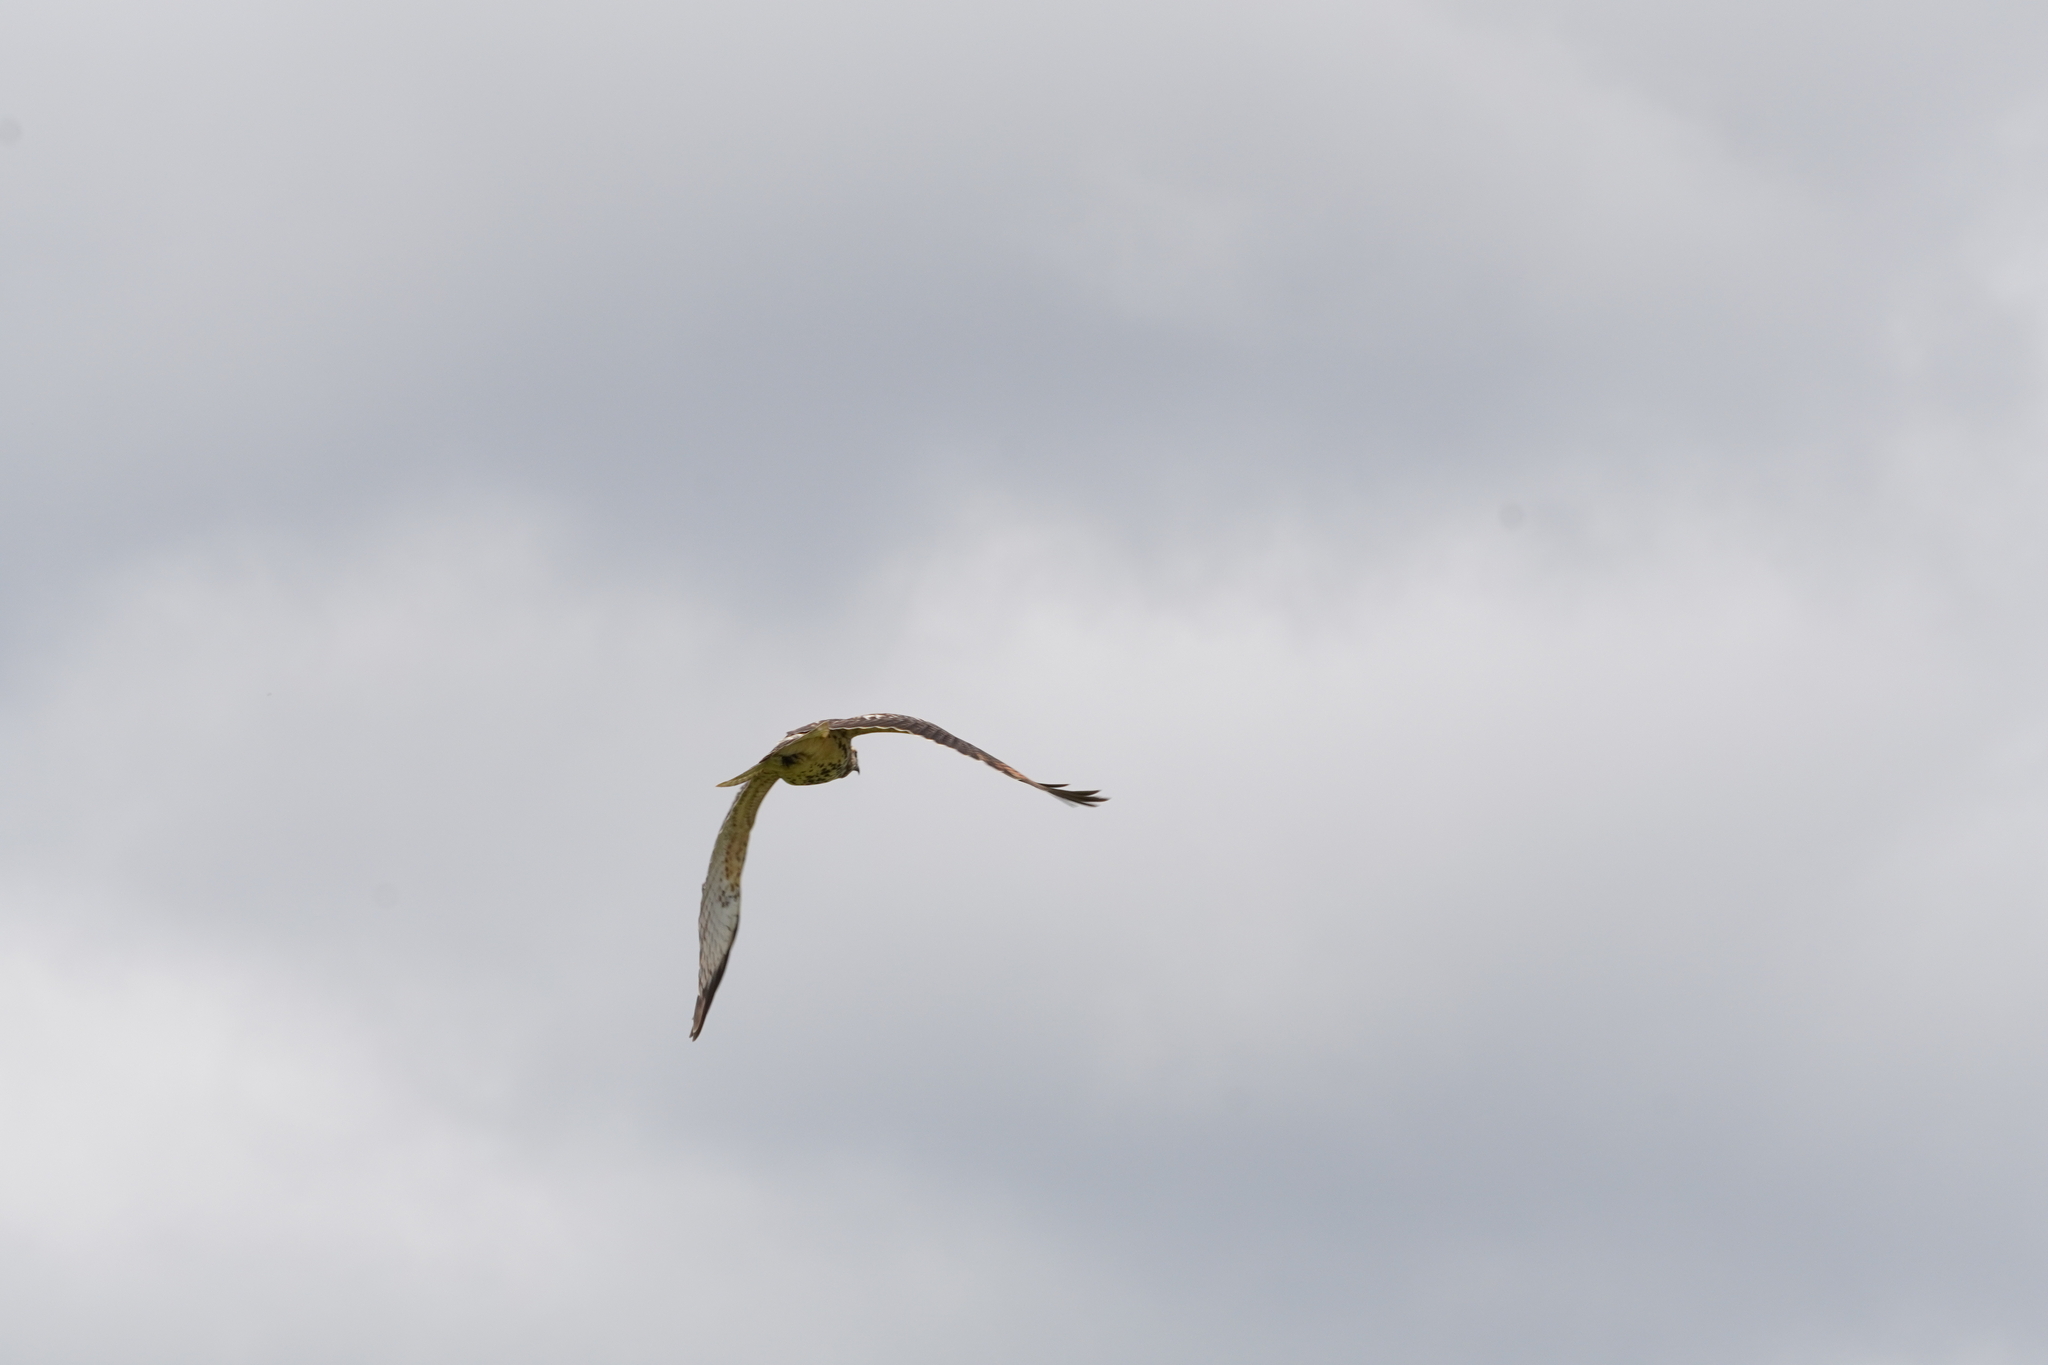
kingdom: Animalia
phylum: Chordata
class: Aves
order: Accipitriformes
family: Accipitridae
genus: Buteo
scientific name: Buteo platypterus
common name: Broad-winged hawk
